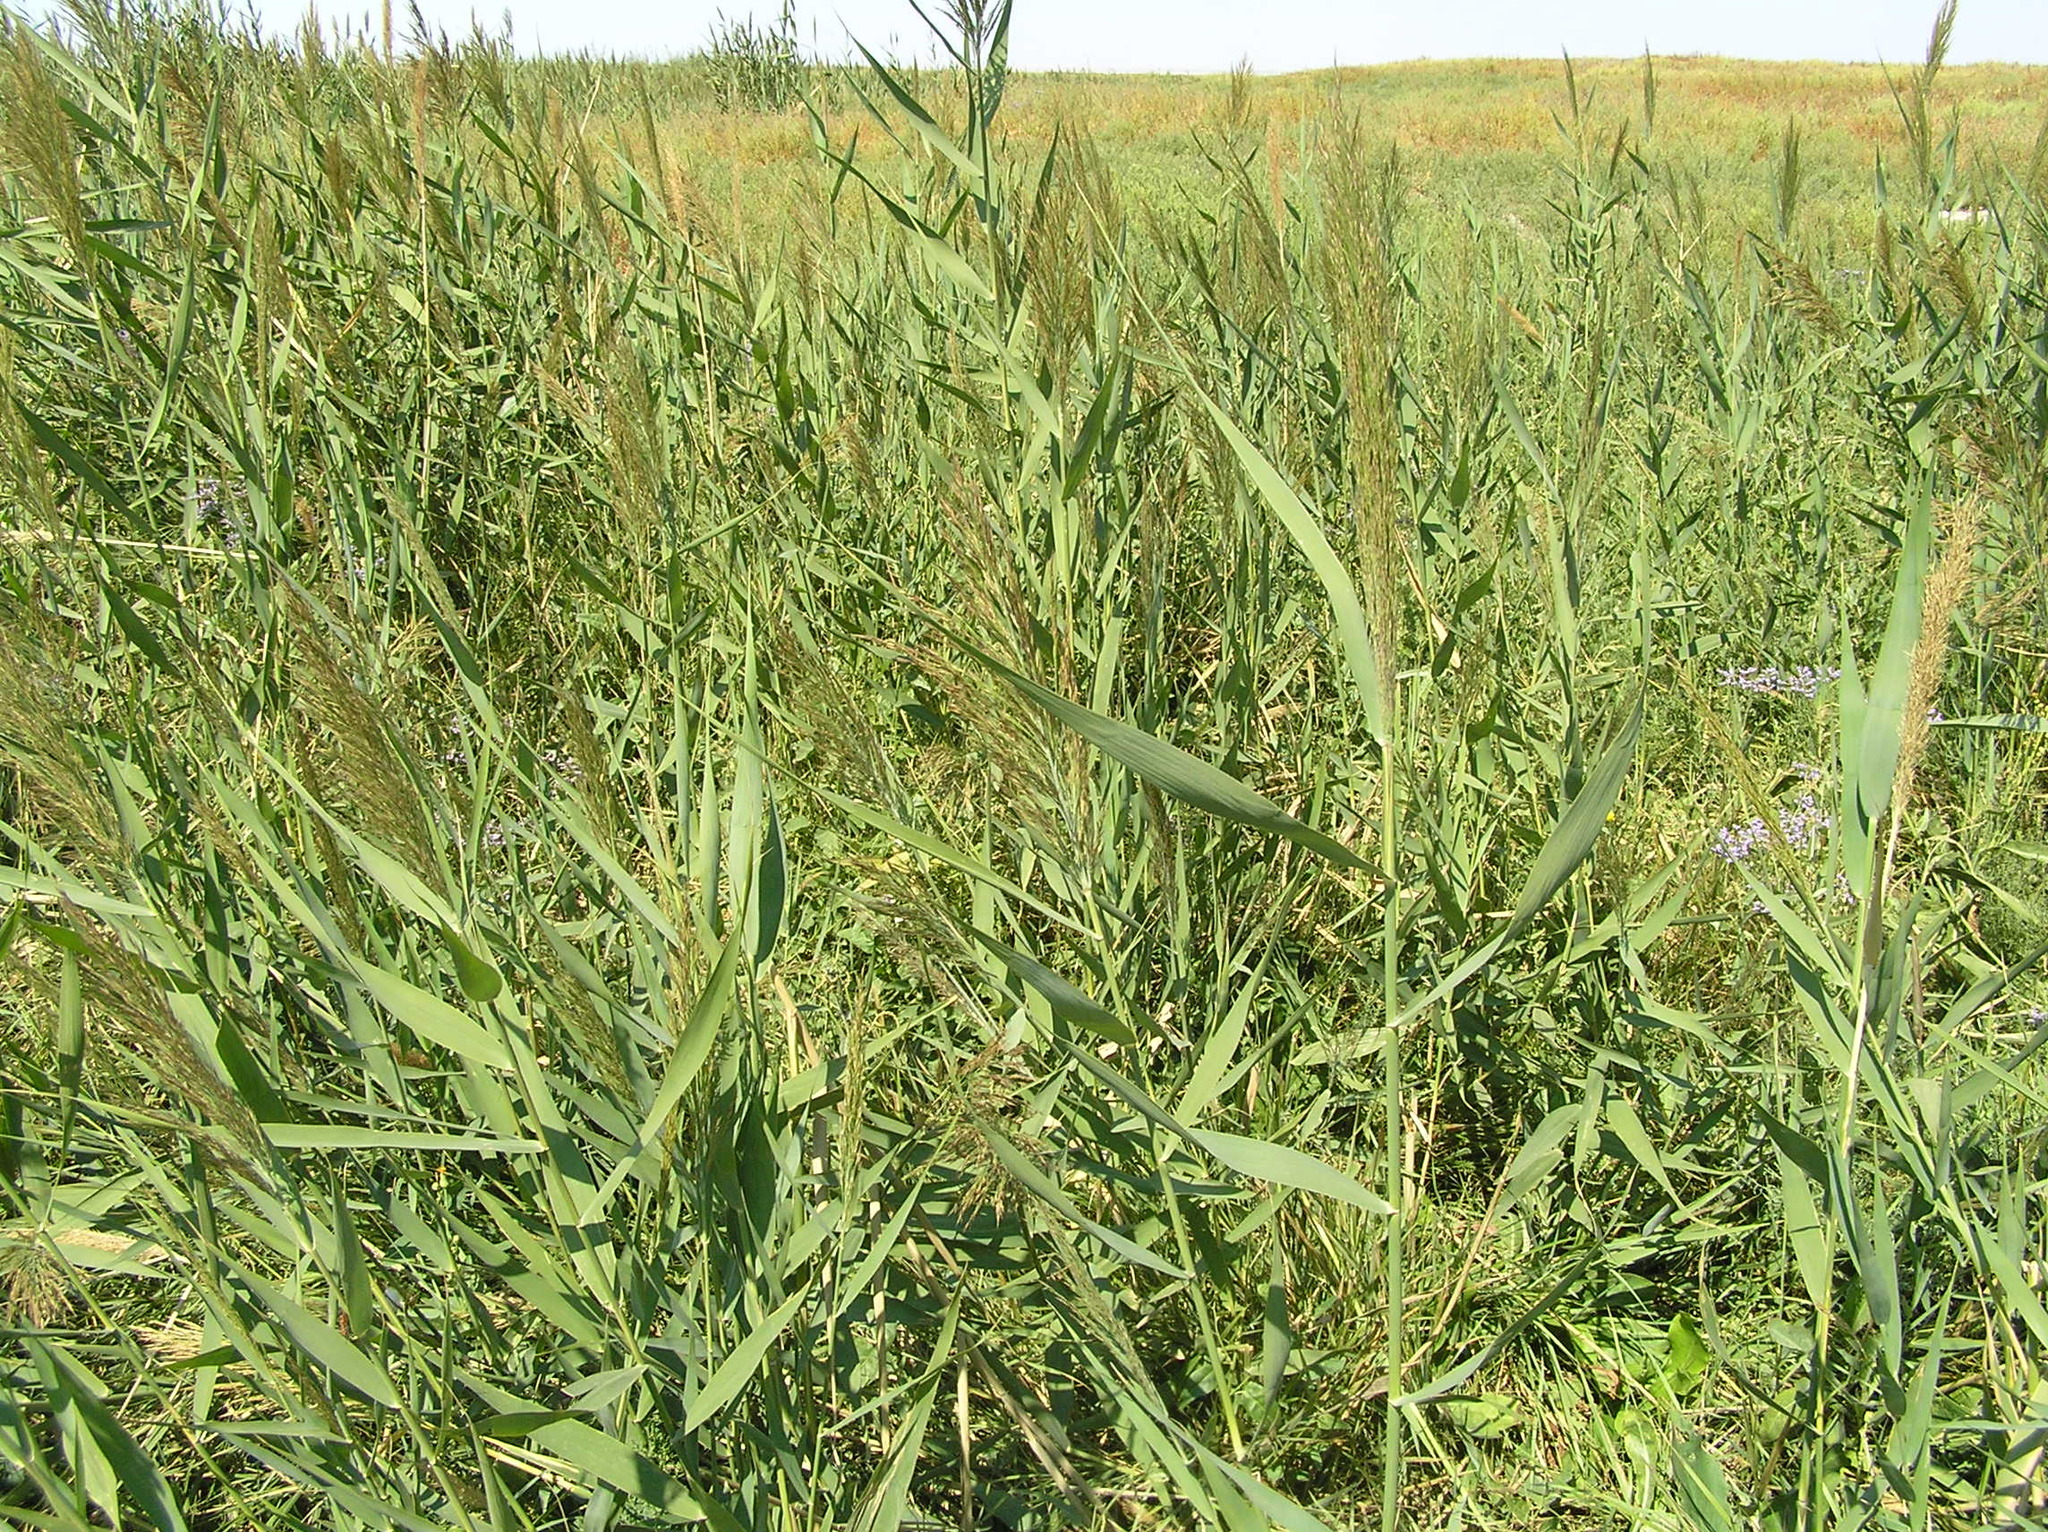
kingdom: Plantae
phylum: Tracheophyta
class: Liliopsida
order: Poales
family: Poaceae
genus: Phragmites
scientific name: Phragmites australis
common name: Common reed
